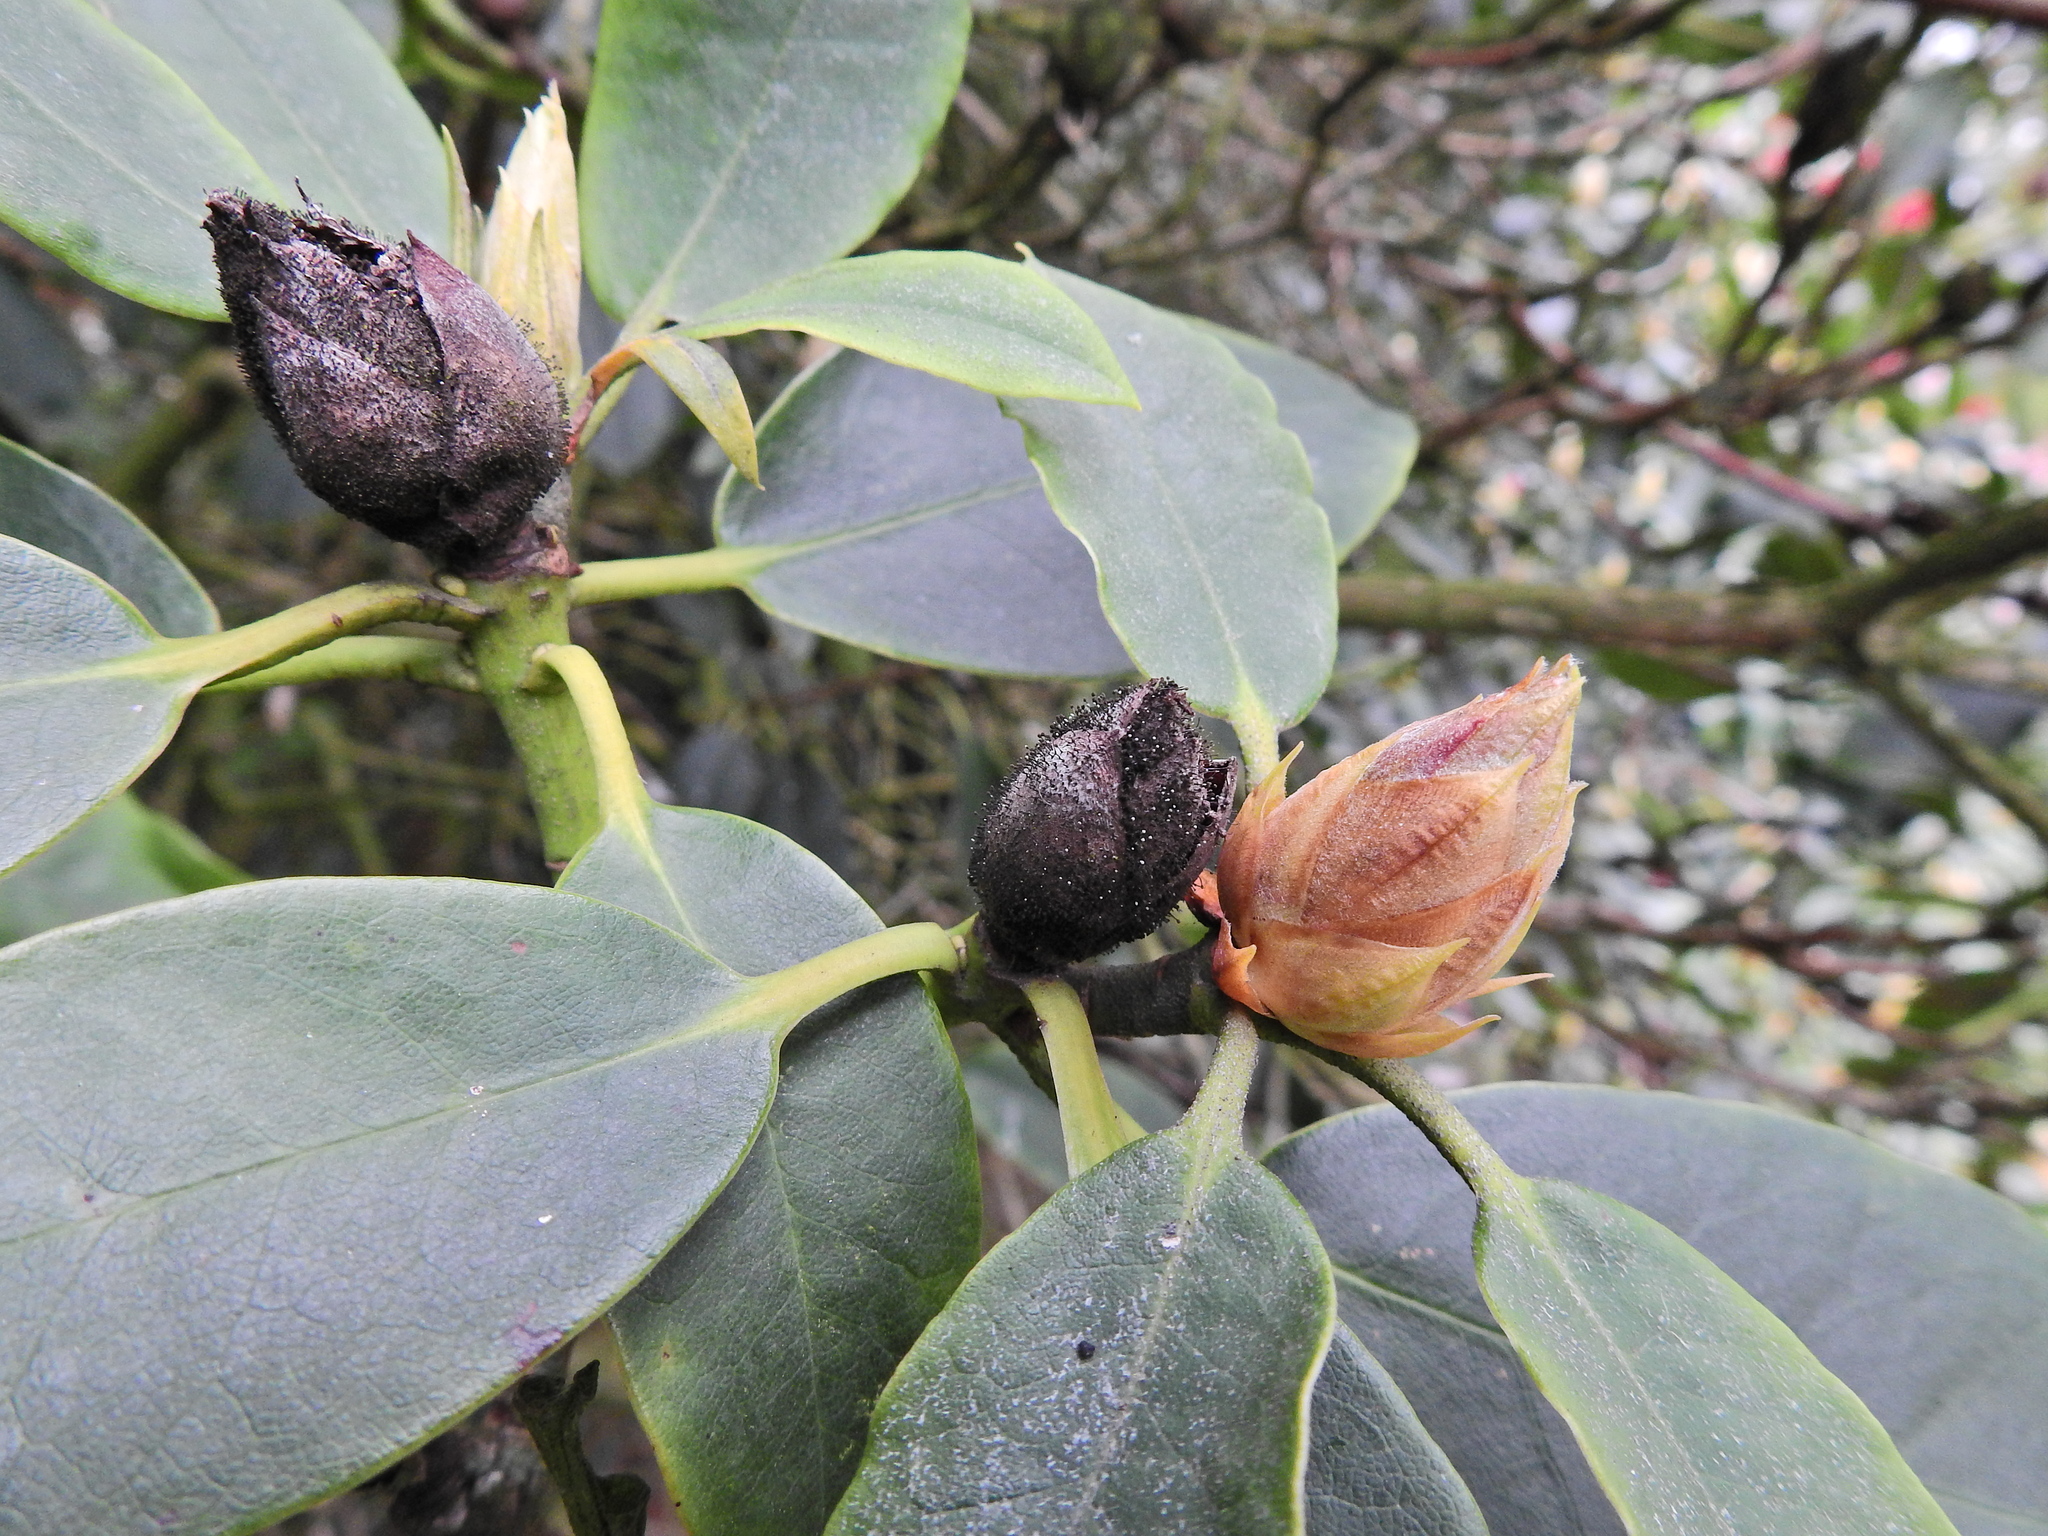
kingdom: Fungi
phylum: Ascomycota
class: Dothideomycetes
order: Pleosporales
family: Melanommataceae
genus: Seifertia
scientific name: Seifertia azaleae
